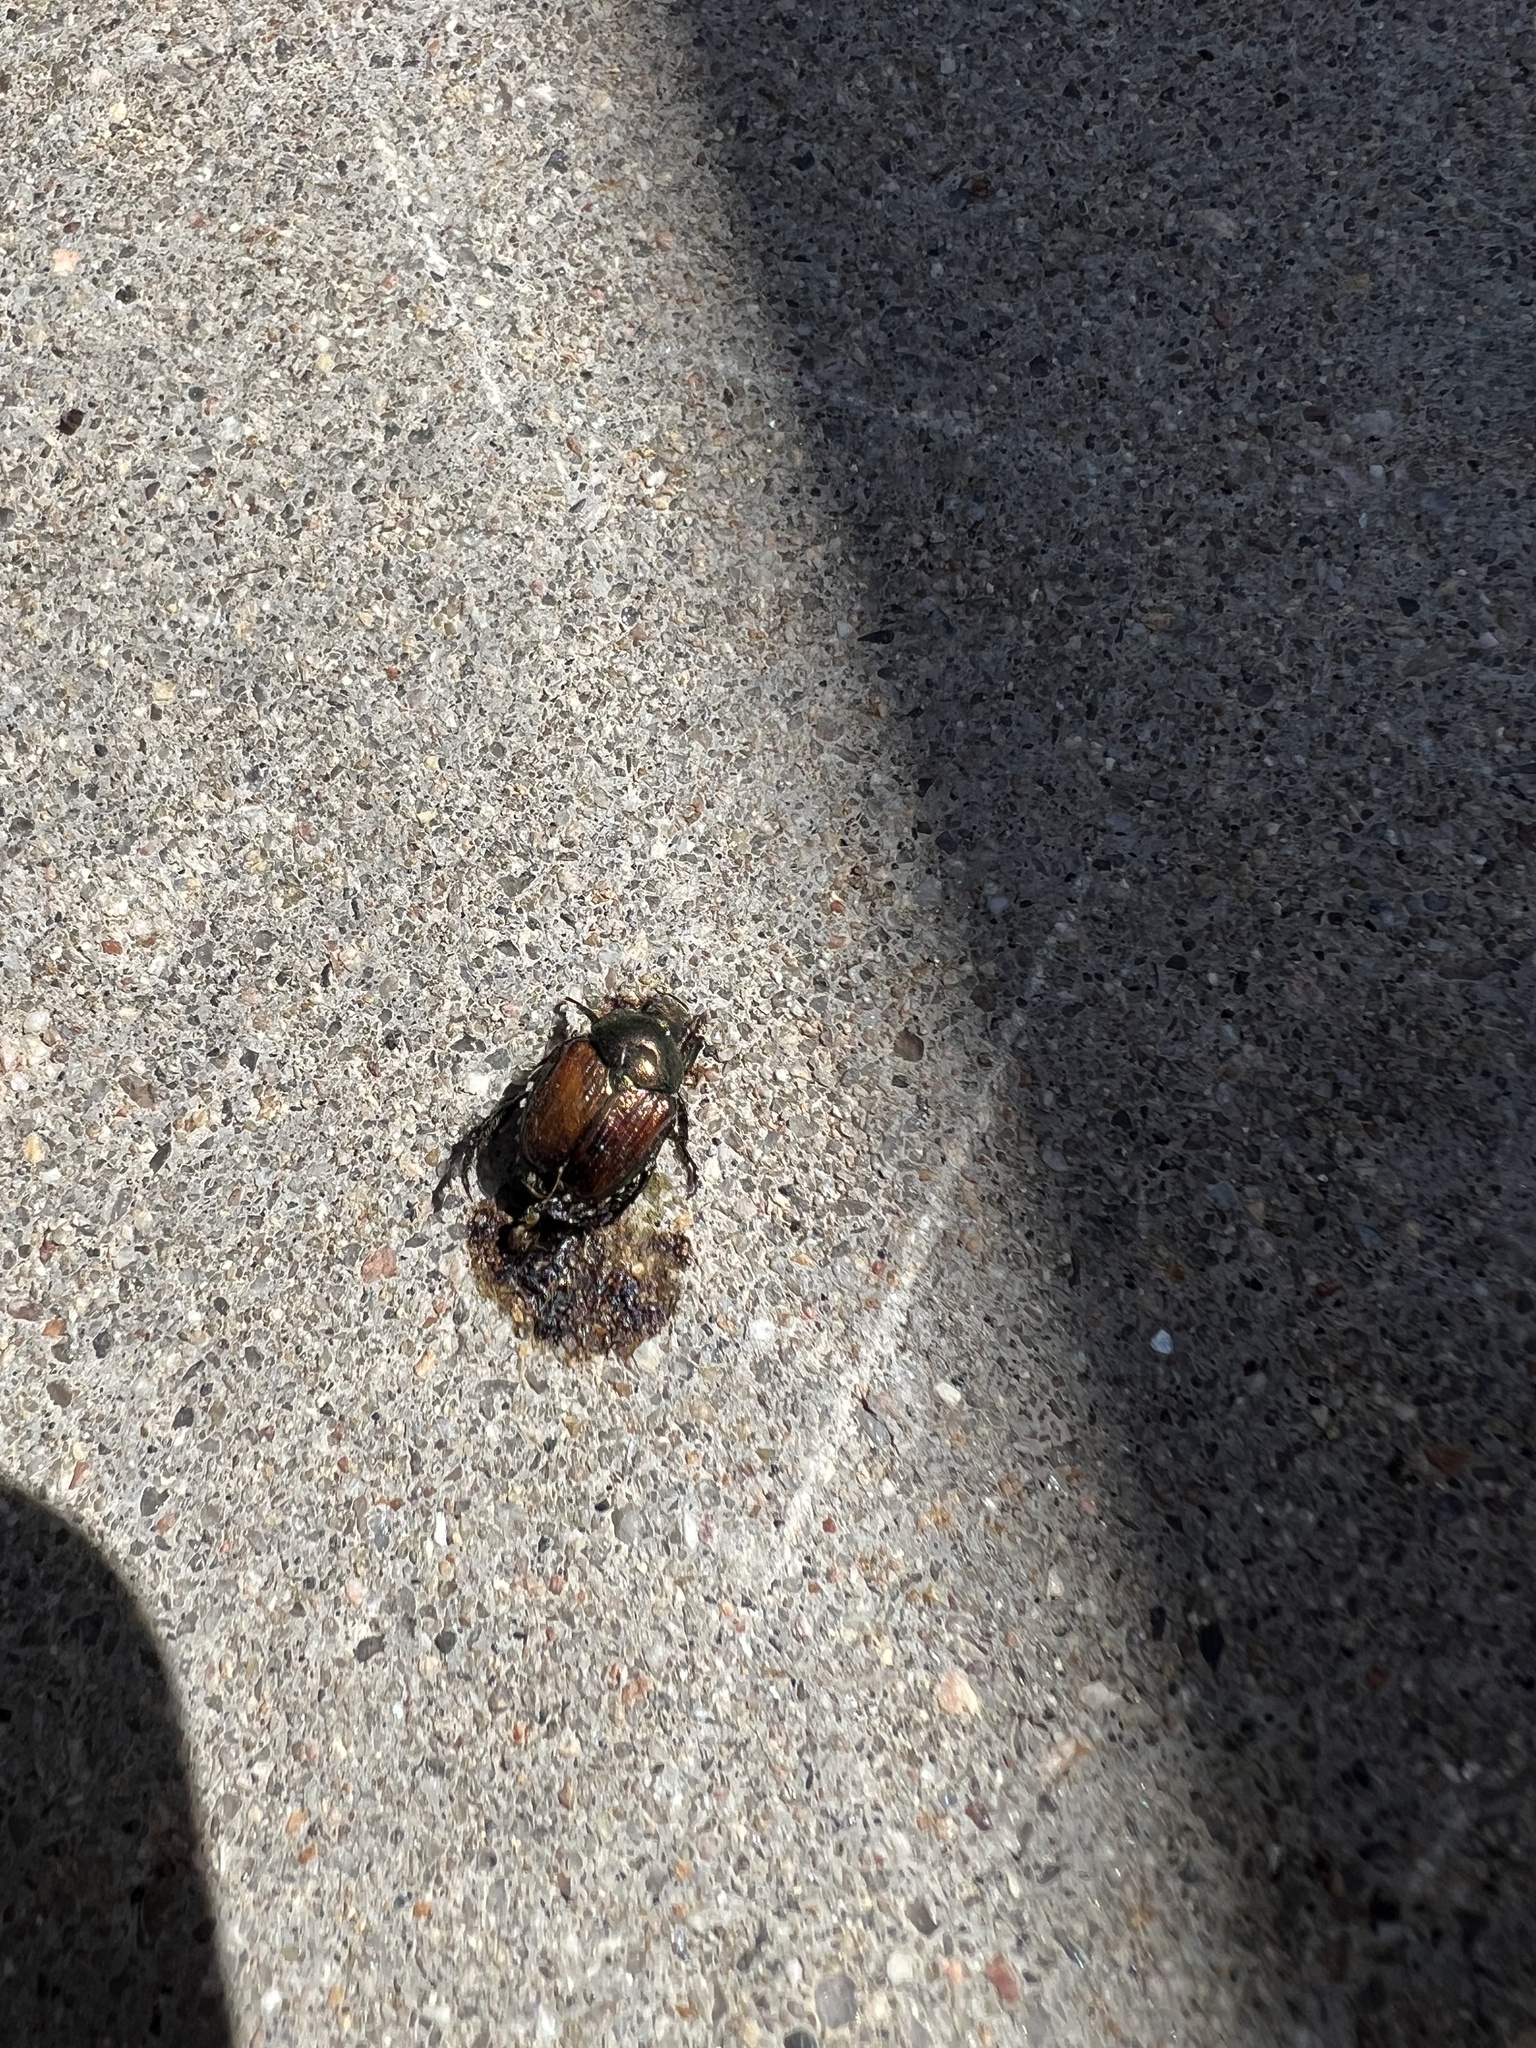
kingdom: Animalia
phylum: Arthropoda
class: Insecta
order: Coleoptera
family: Scarabaeidae
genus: Popillia
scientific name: Popillia japonica
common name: Japanese beetle
